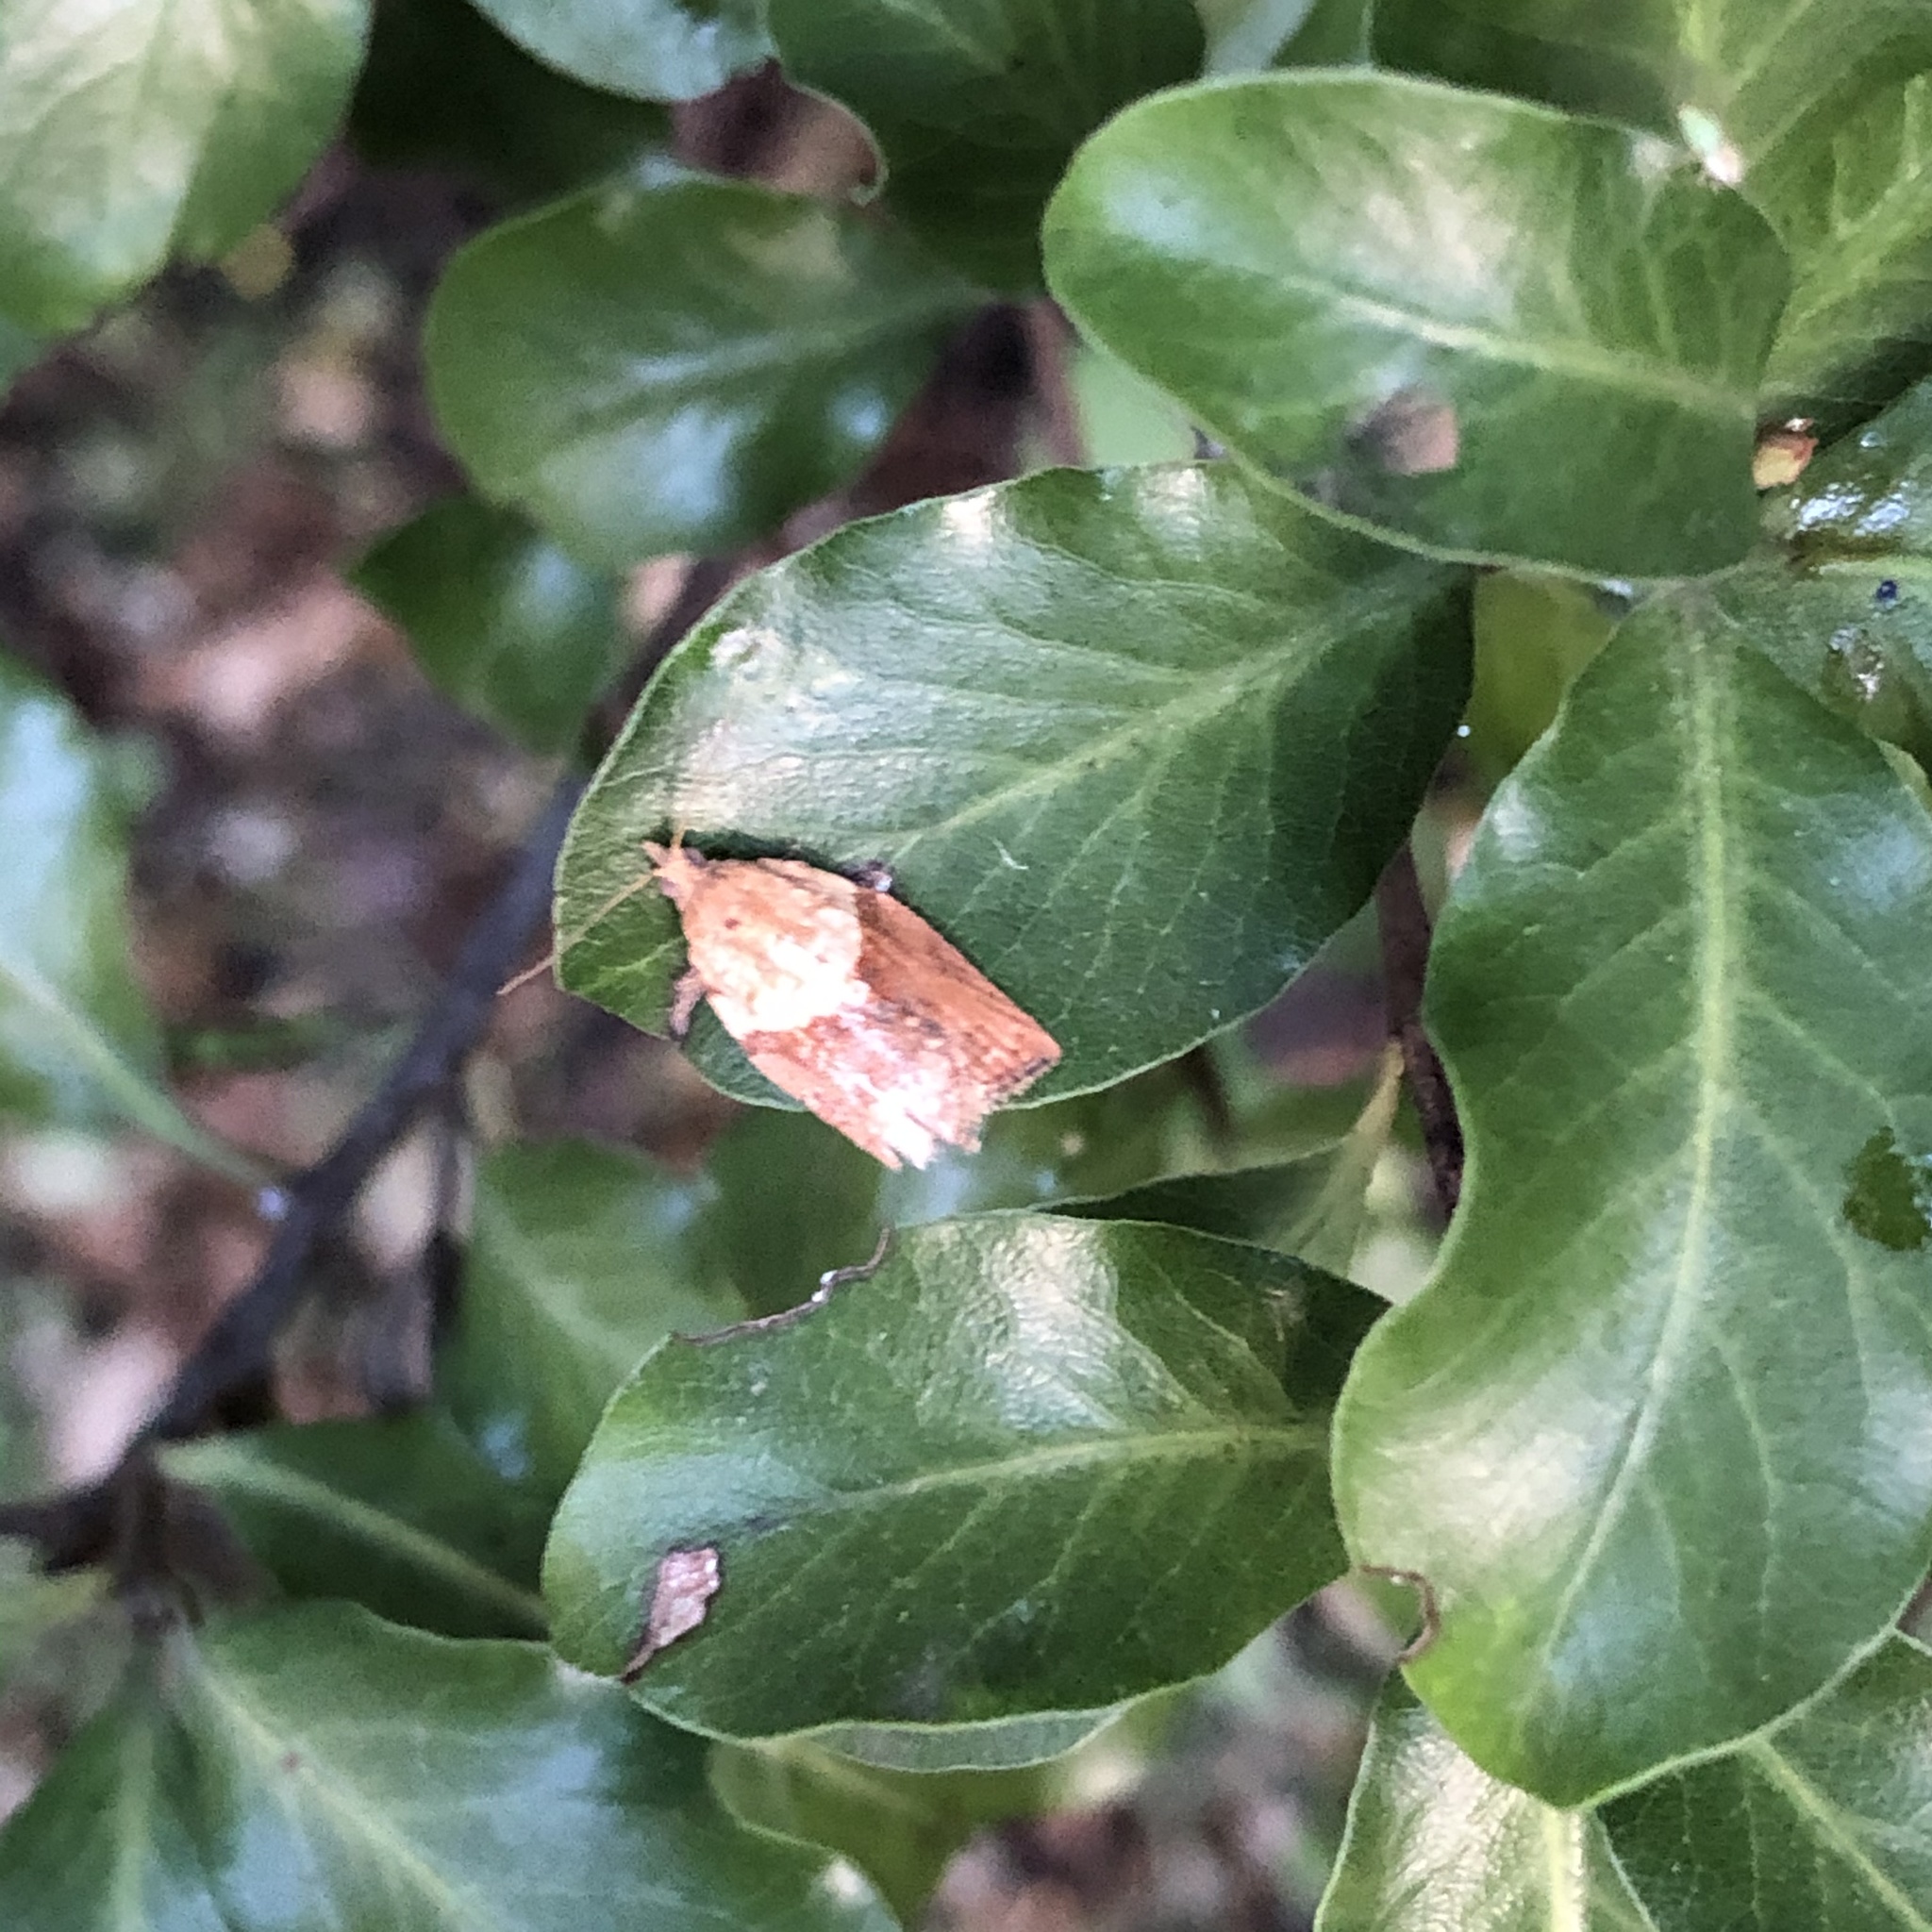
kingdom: Animalia
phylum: Arthropoda
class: Insecta
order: Lepidoptera
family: Tortricidae
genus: Epiphyas
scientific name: Epiphyas postvittana
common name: Light brown apple moth
